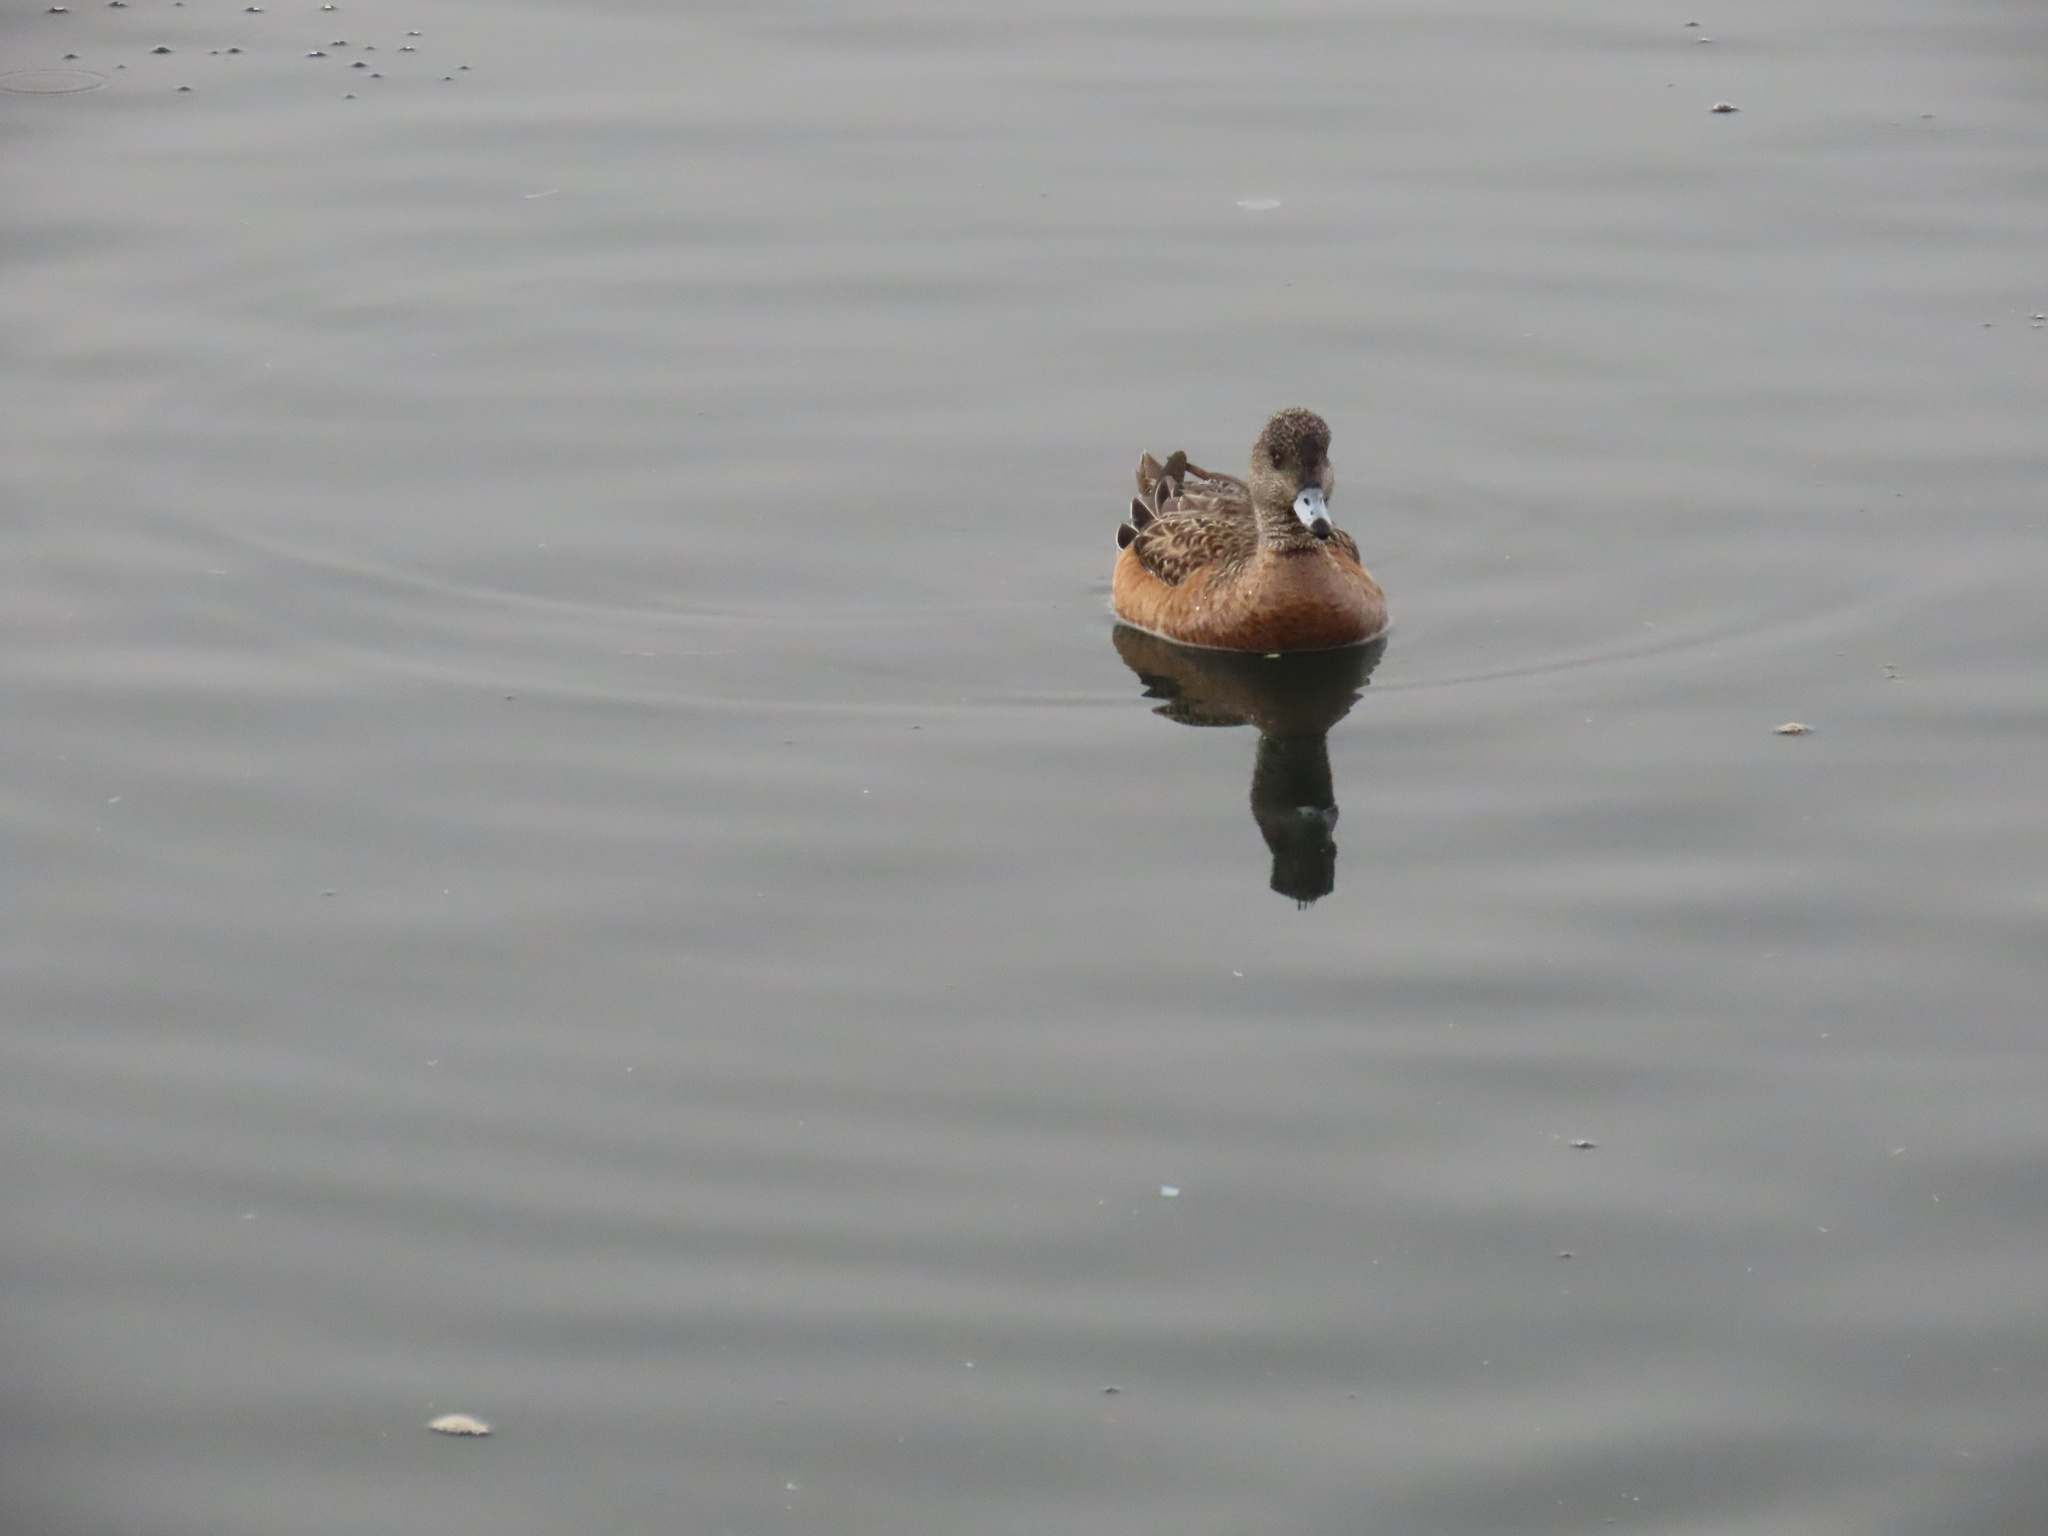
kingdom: Animalia
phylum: Chordata
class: Aves
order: Anseriformes
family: Anatidae
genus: Mareca
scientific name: Mareca americana
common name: American wigeon
